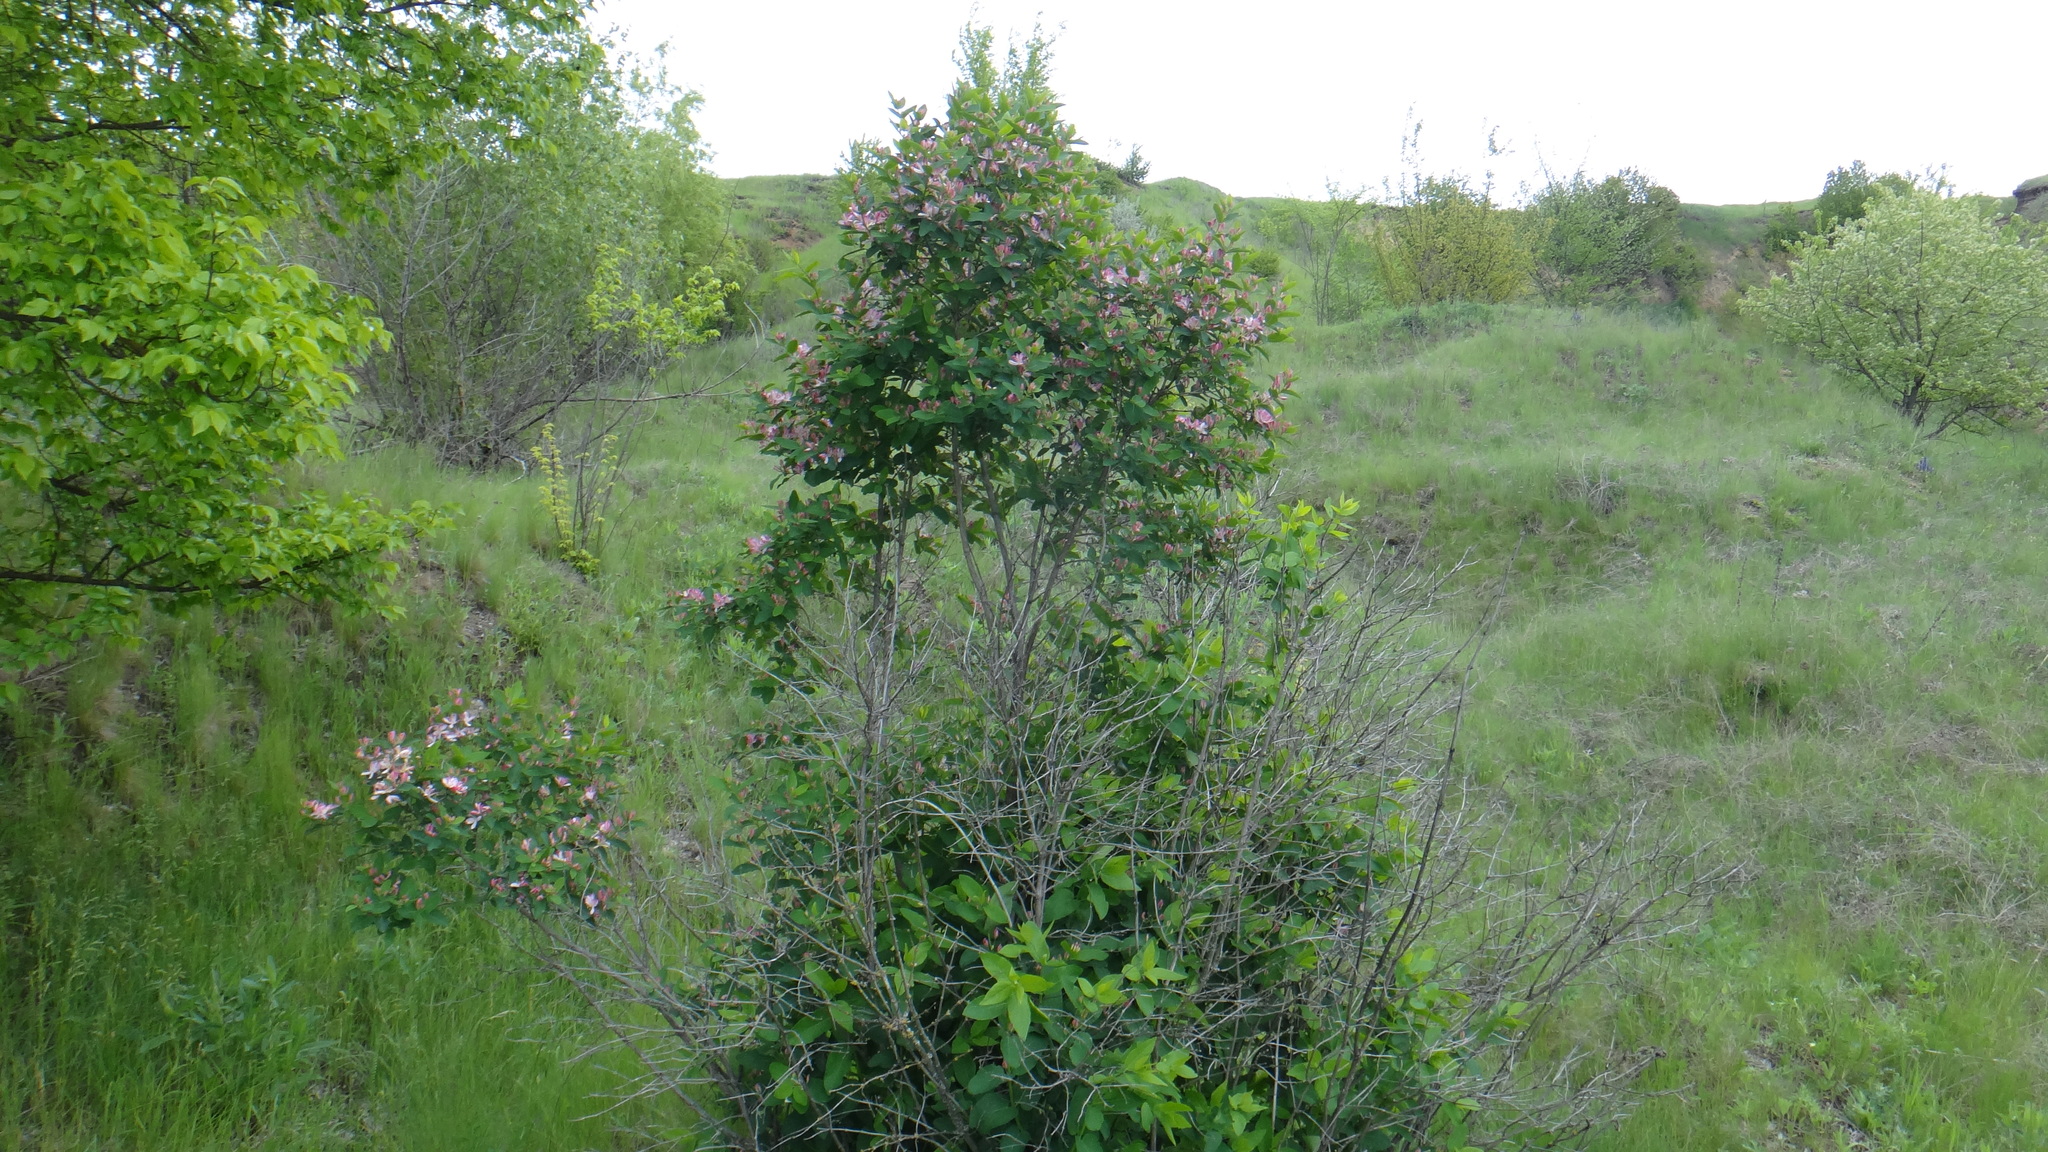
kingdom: Plantae
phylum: Tracheophyta
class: Magnoliopsida
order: Dipsacales
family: Caprifoliaceae
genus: Lonicera
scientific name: Lonicera tatarica
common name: Tatarian honeysuckle
